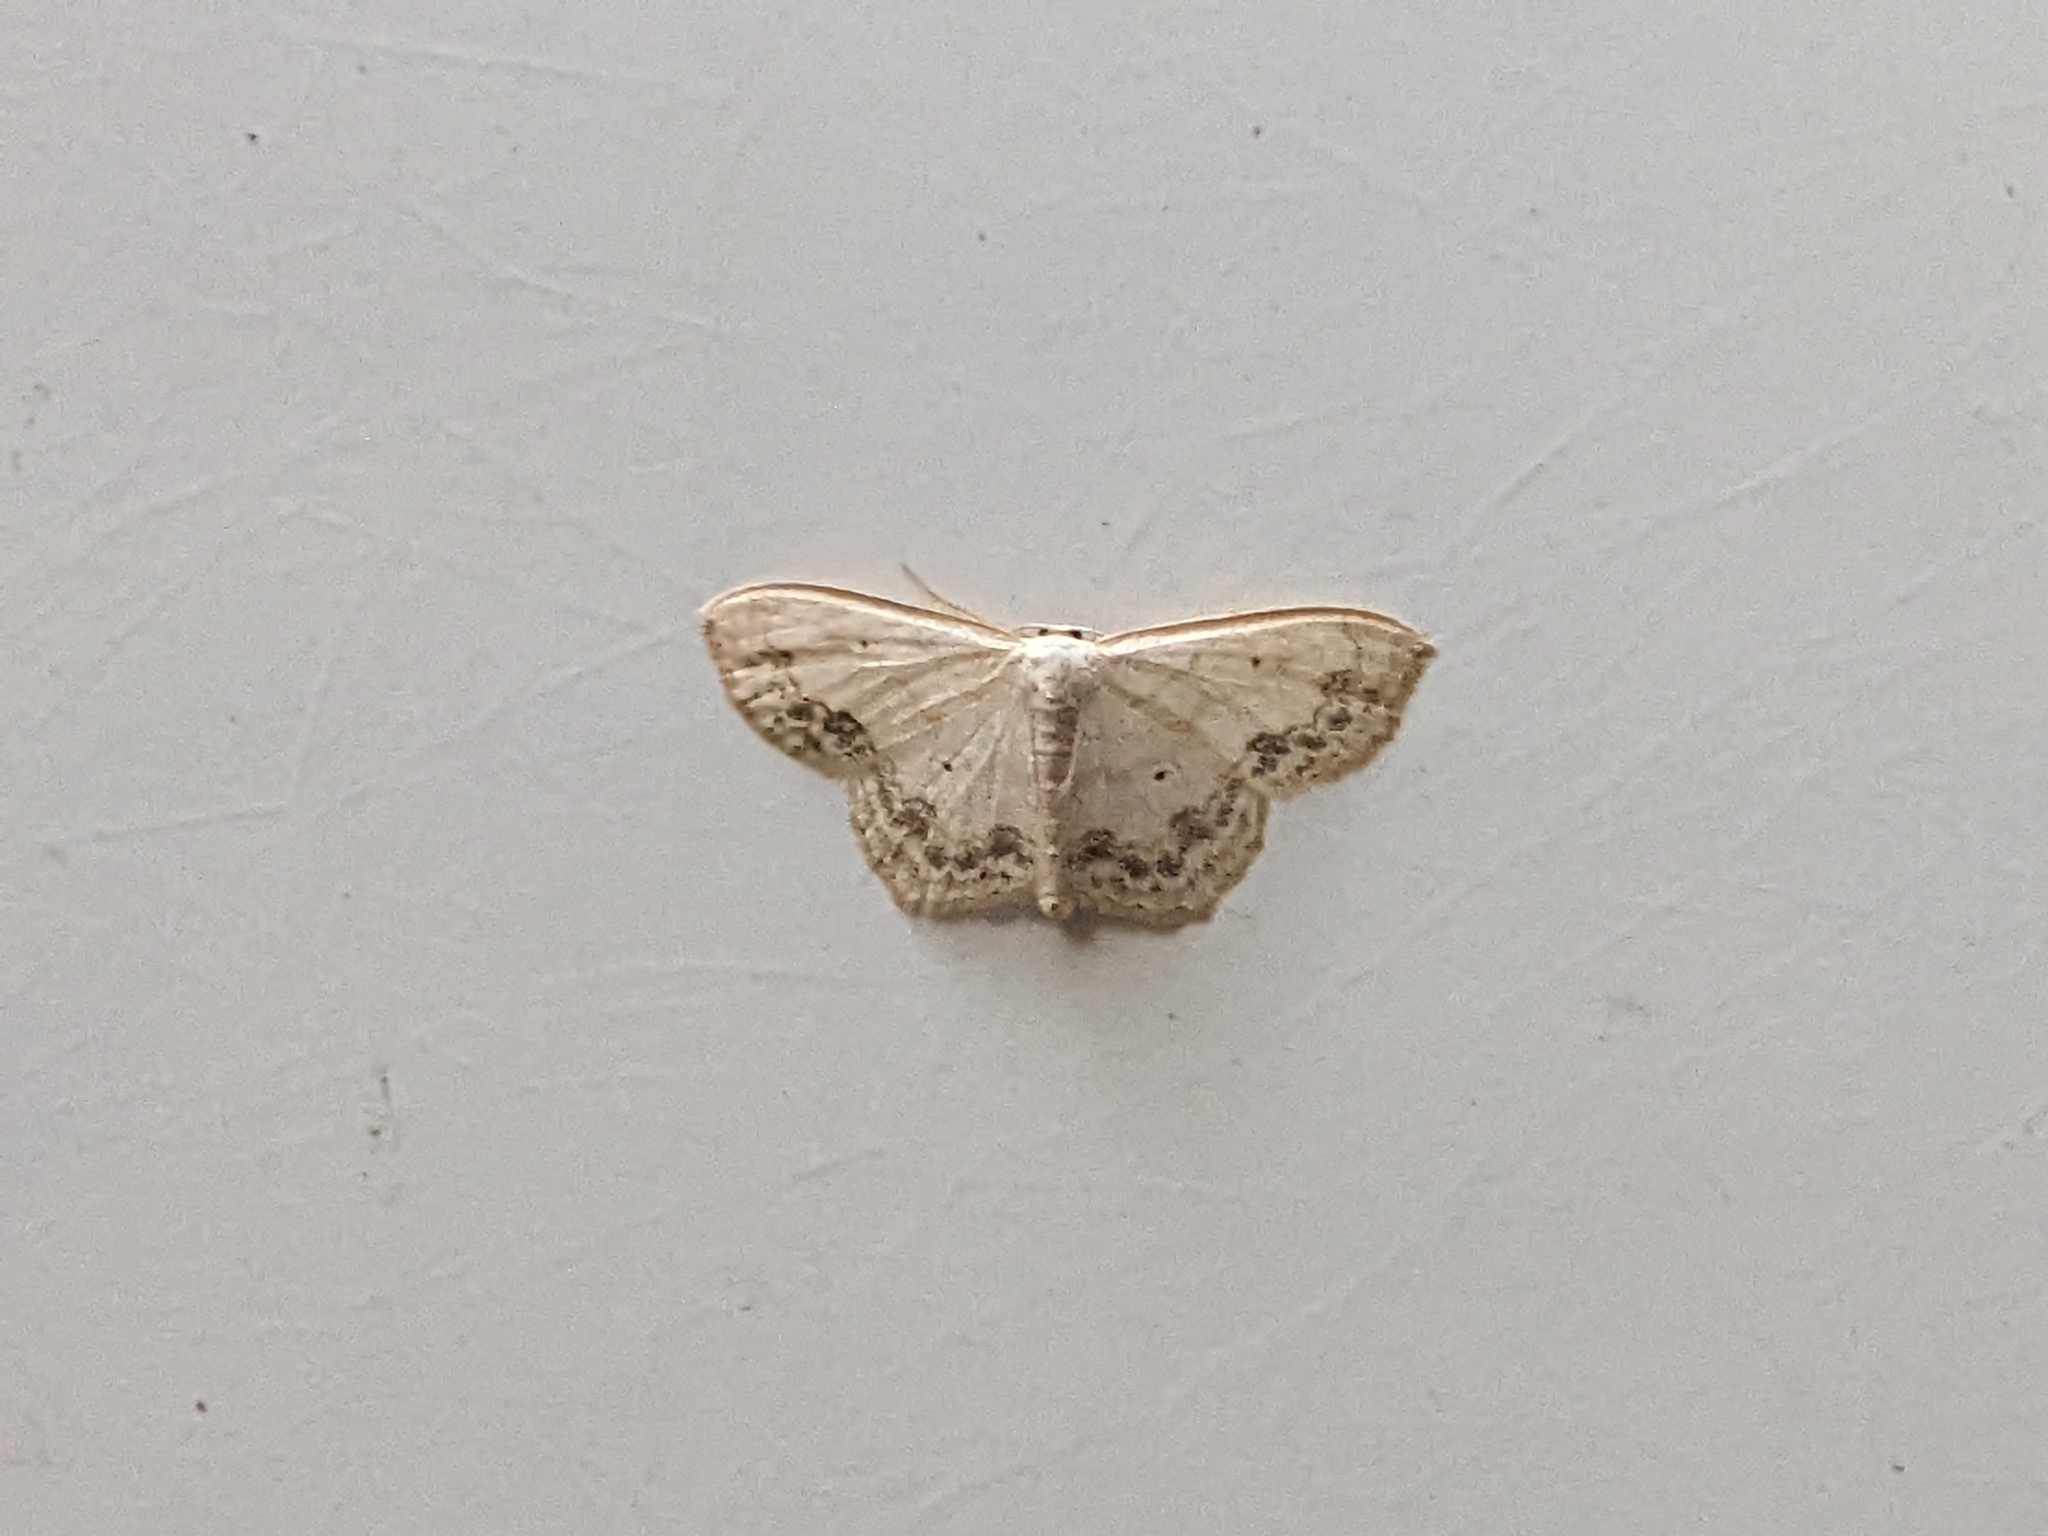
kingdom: Animalia
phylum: Arthropoda
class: Insecta
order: Lepidoptera
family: Geometridae
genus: Scopula
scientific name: Scopula limboundata
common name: Large lace border
